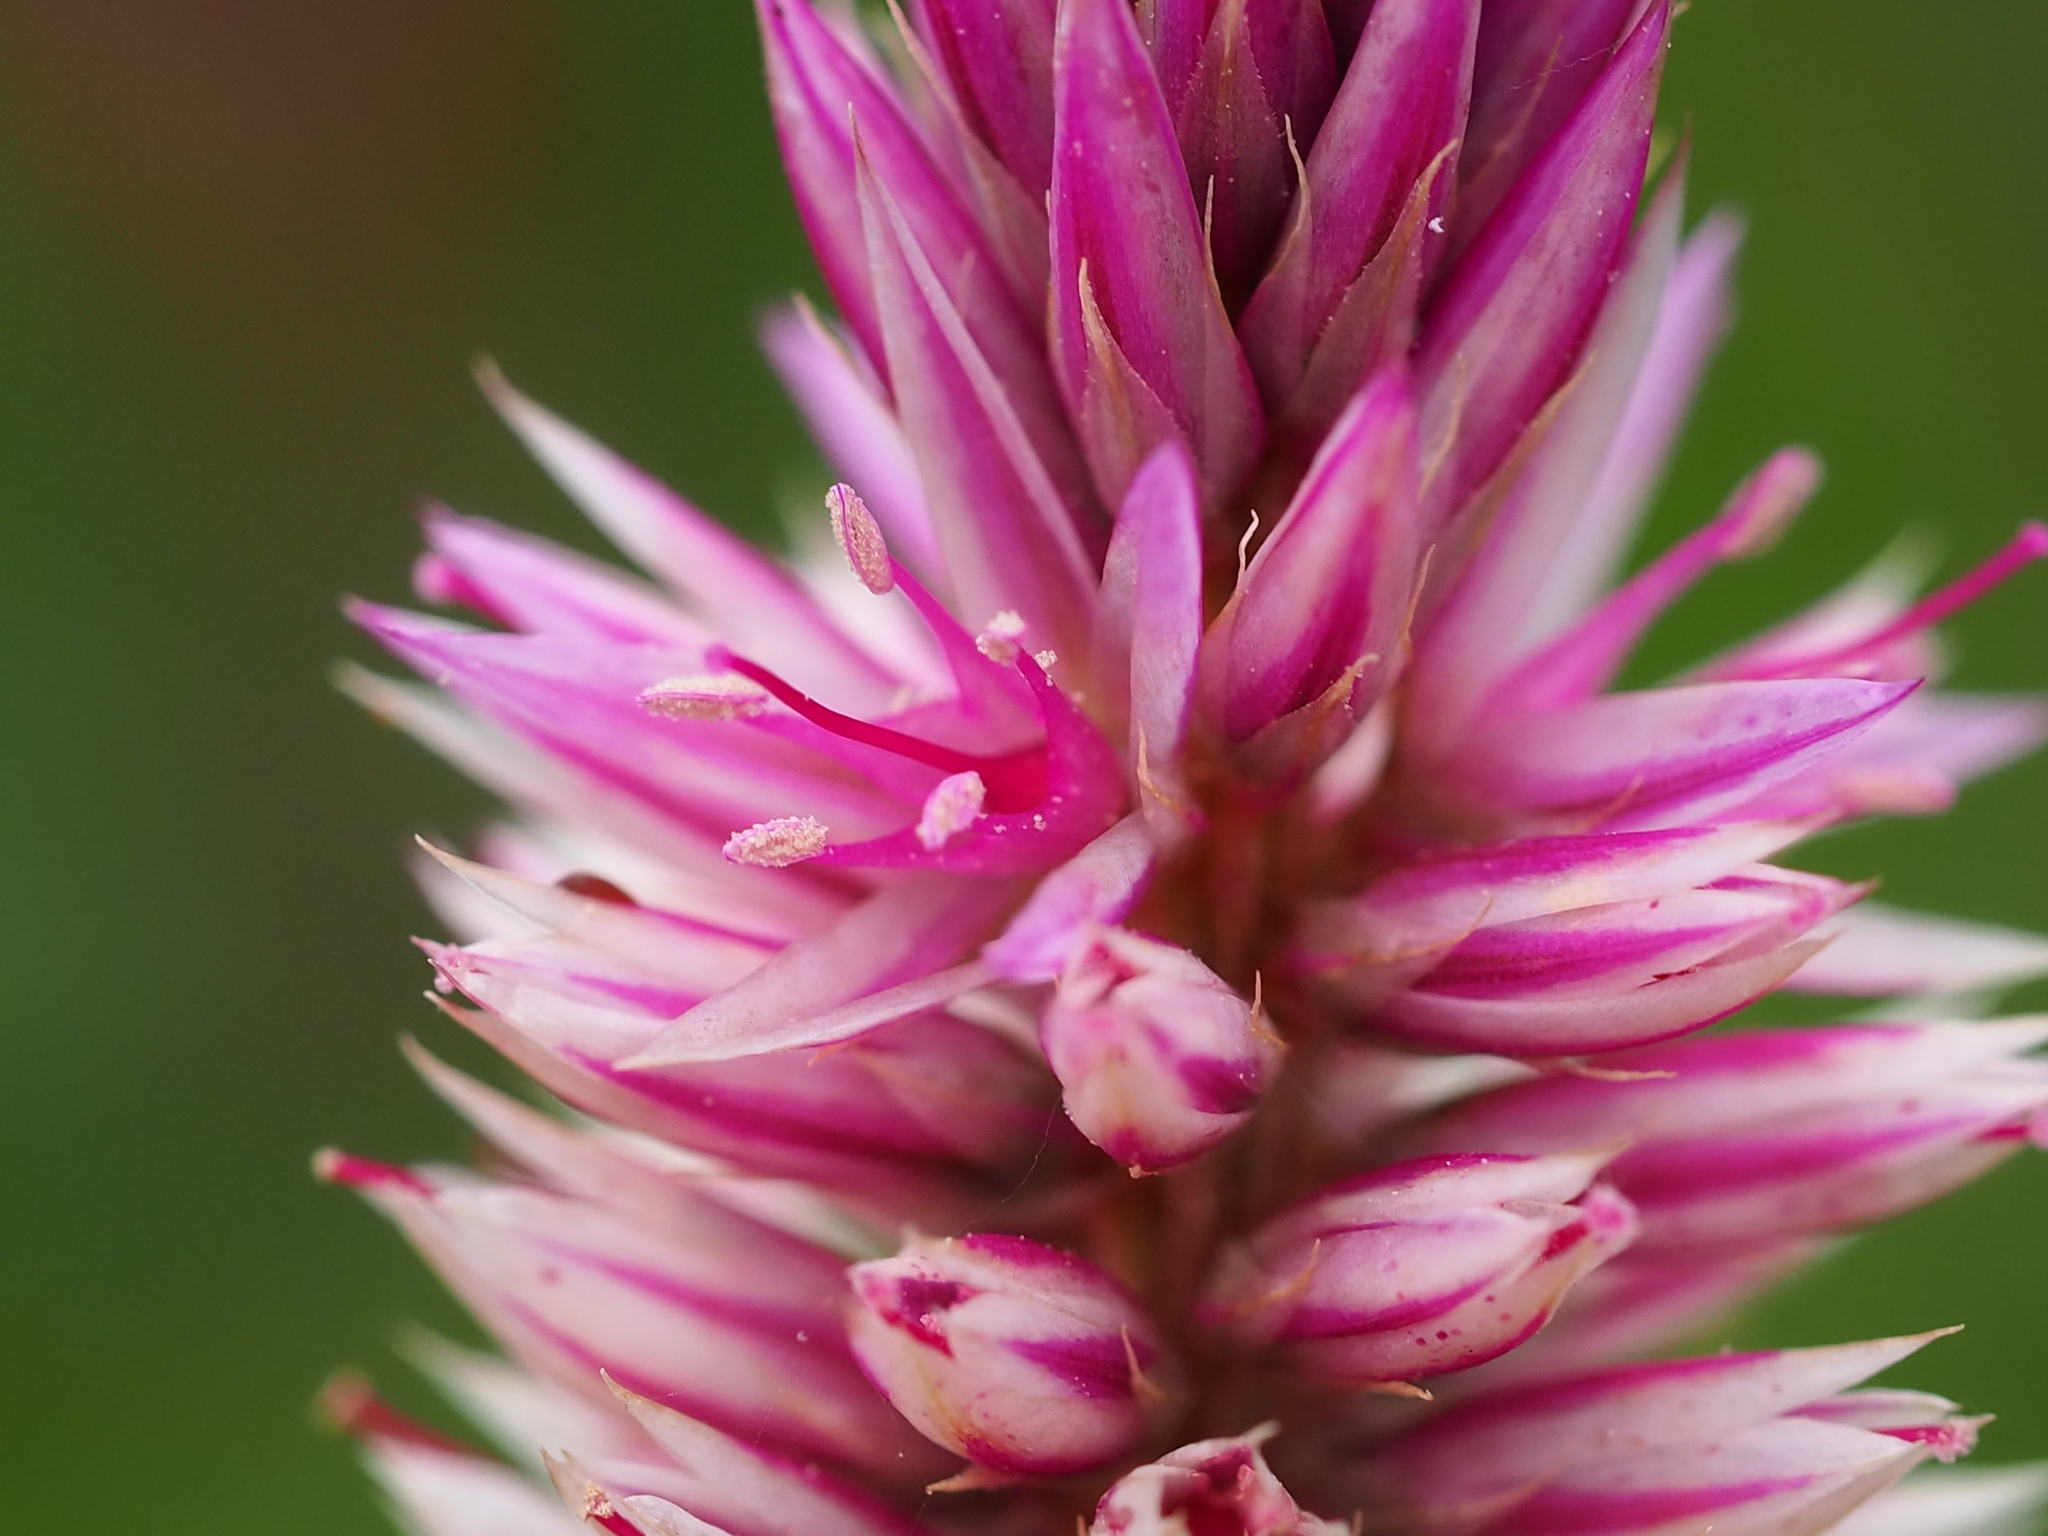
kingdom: Plantae
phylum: Tracheophyta
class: Magnoliopsida
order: Caryophyllales
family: Amaranthaceae
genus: Celosia
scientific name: Celosia argentea
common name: Feather cockscomb
